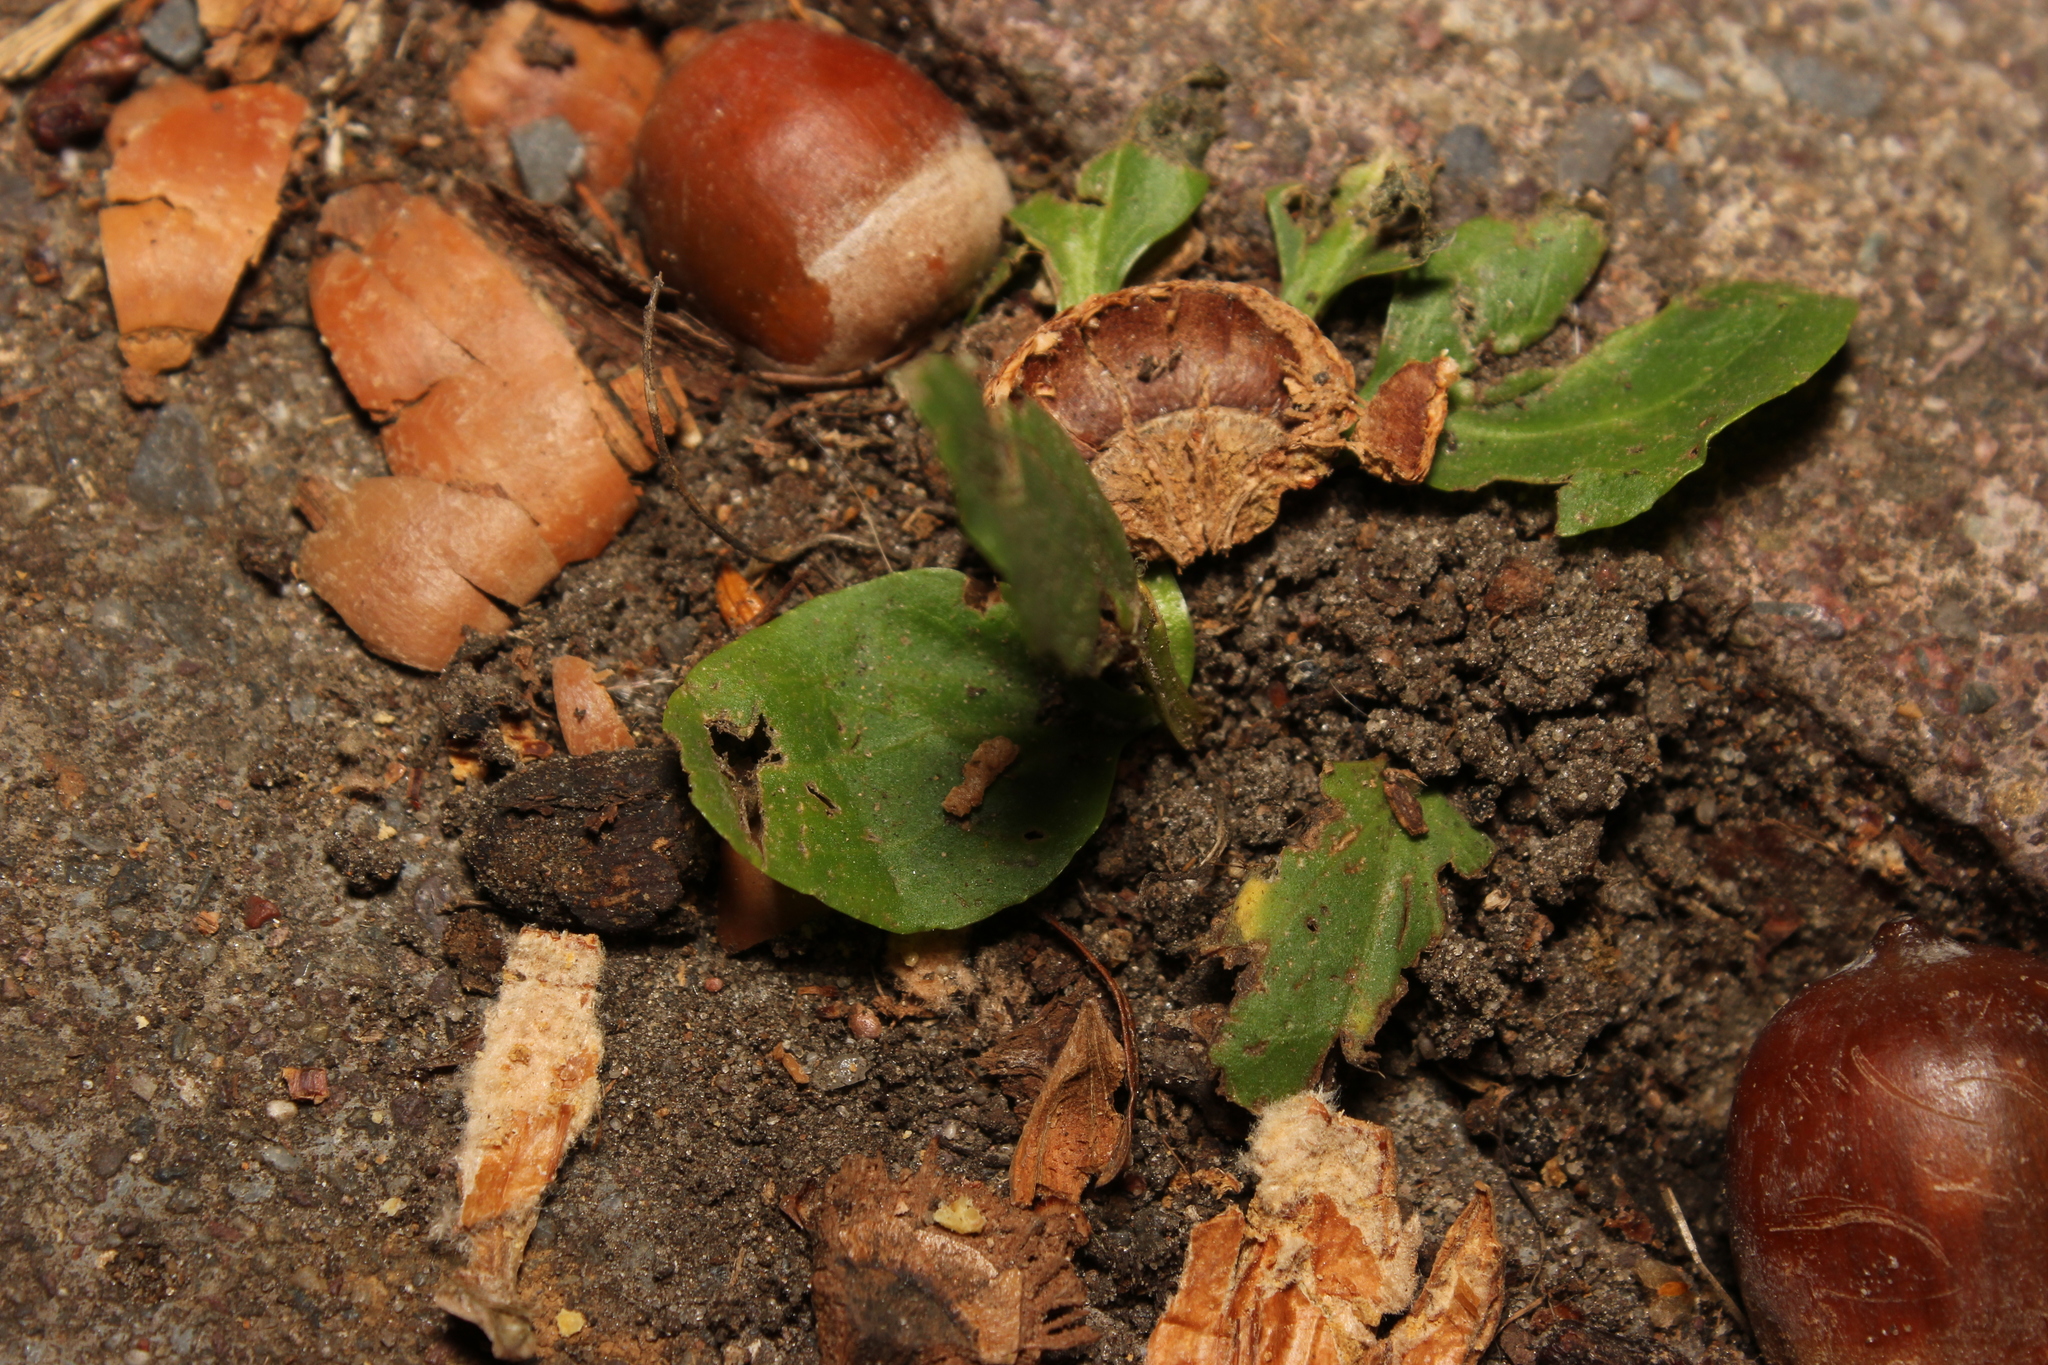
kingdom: Plantae
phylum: Tracheophyta
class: Magnoliopsida
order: Lamiales
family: Plantaginaceae
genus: Plantago
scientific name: Plantago major
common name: Common plantain
